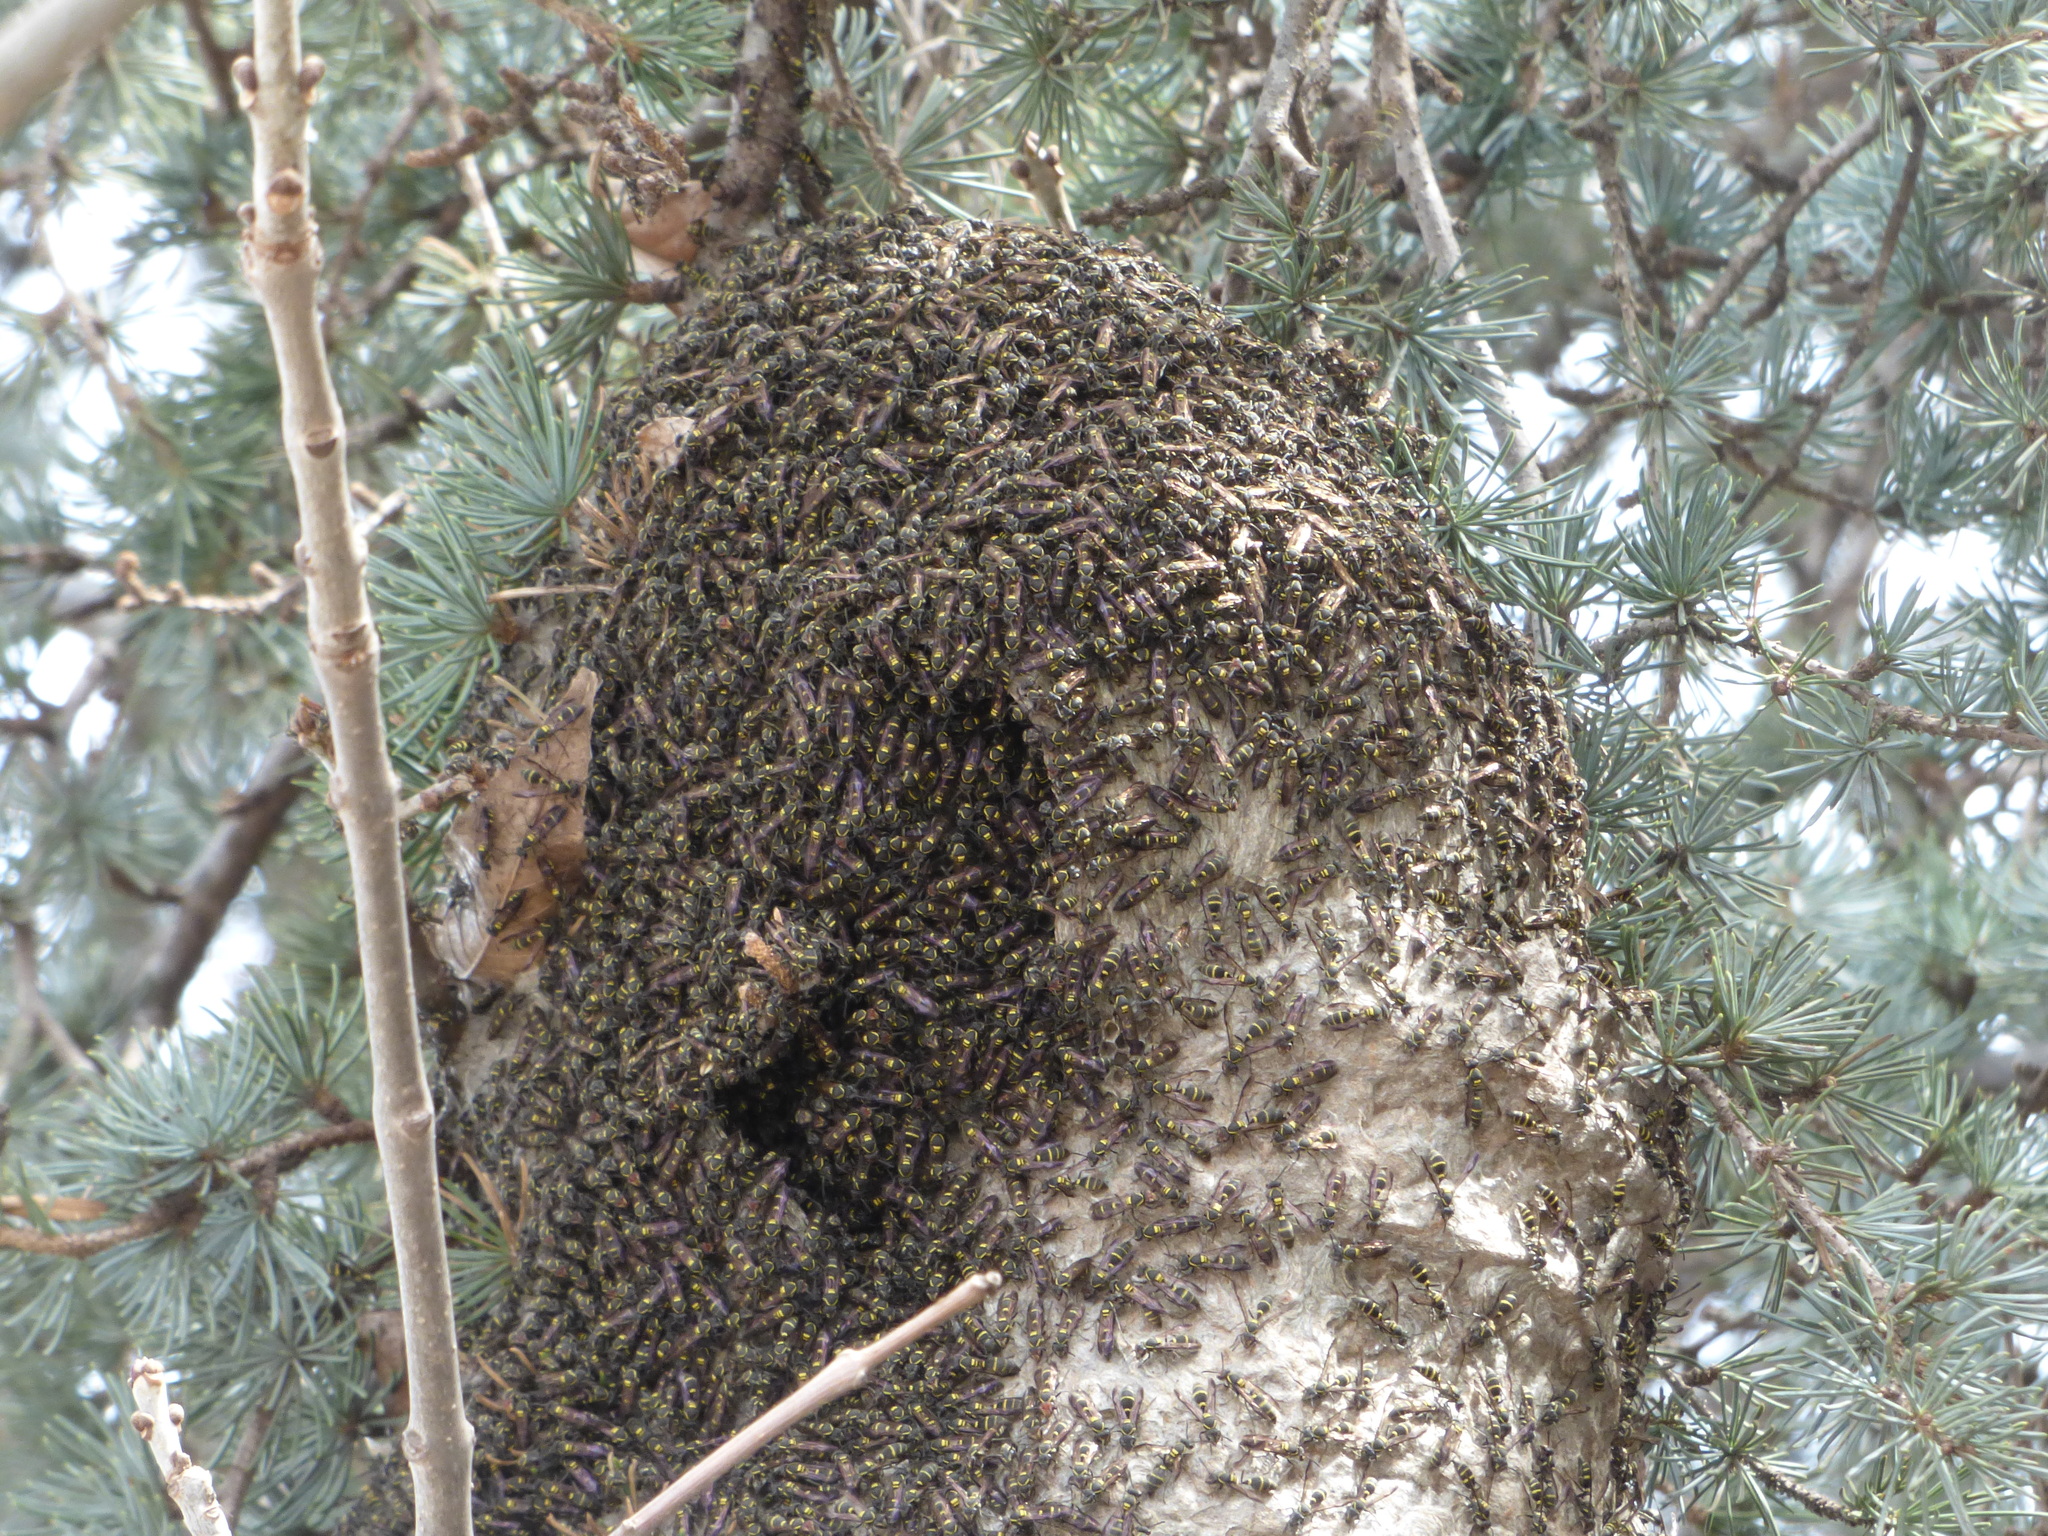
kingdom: Animalia
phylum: Arthropoda
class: Insecta
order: Hymenoptera
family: Eumenidae
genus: Polybia
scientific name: Polybia ruficeps
